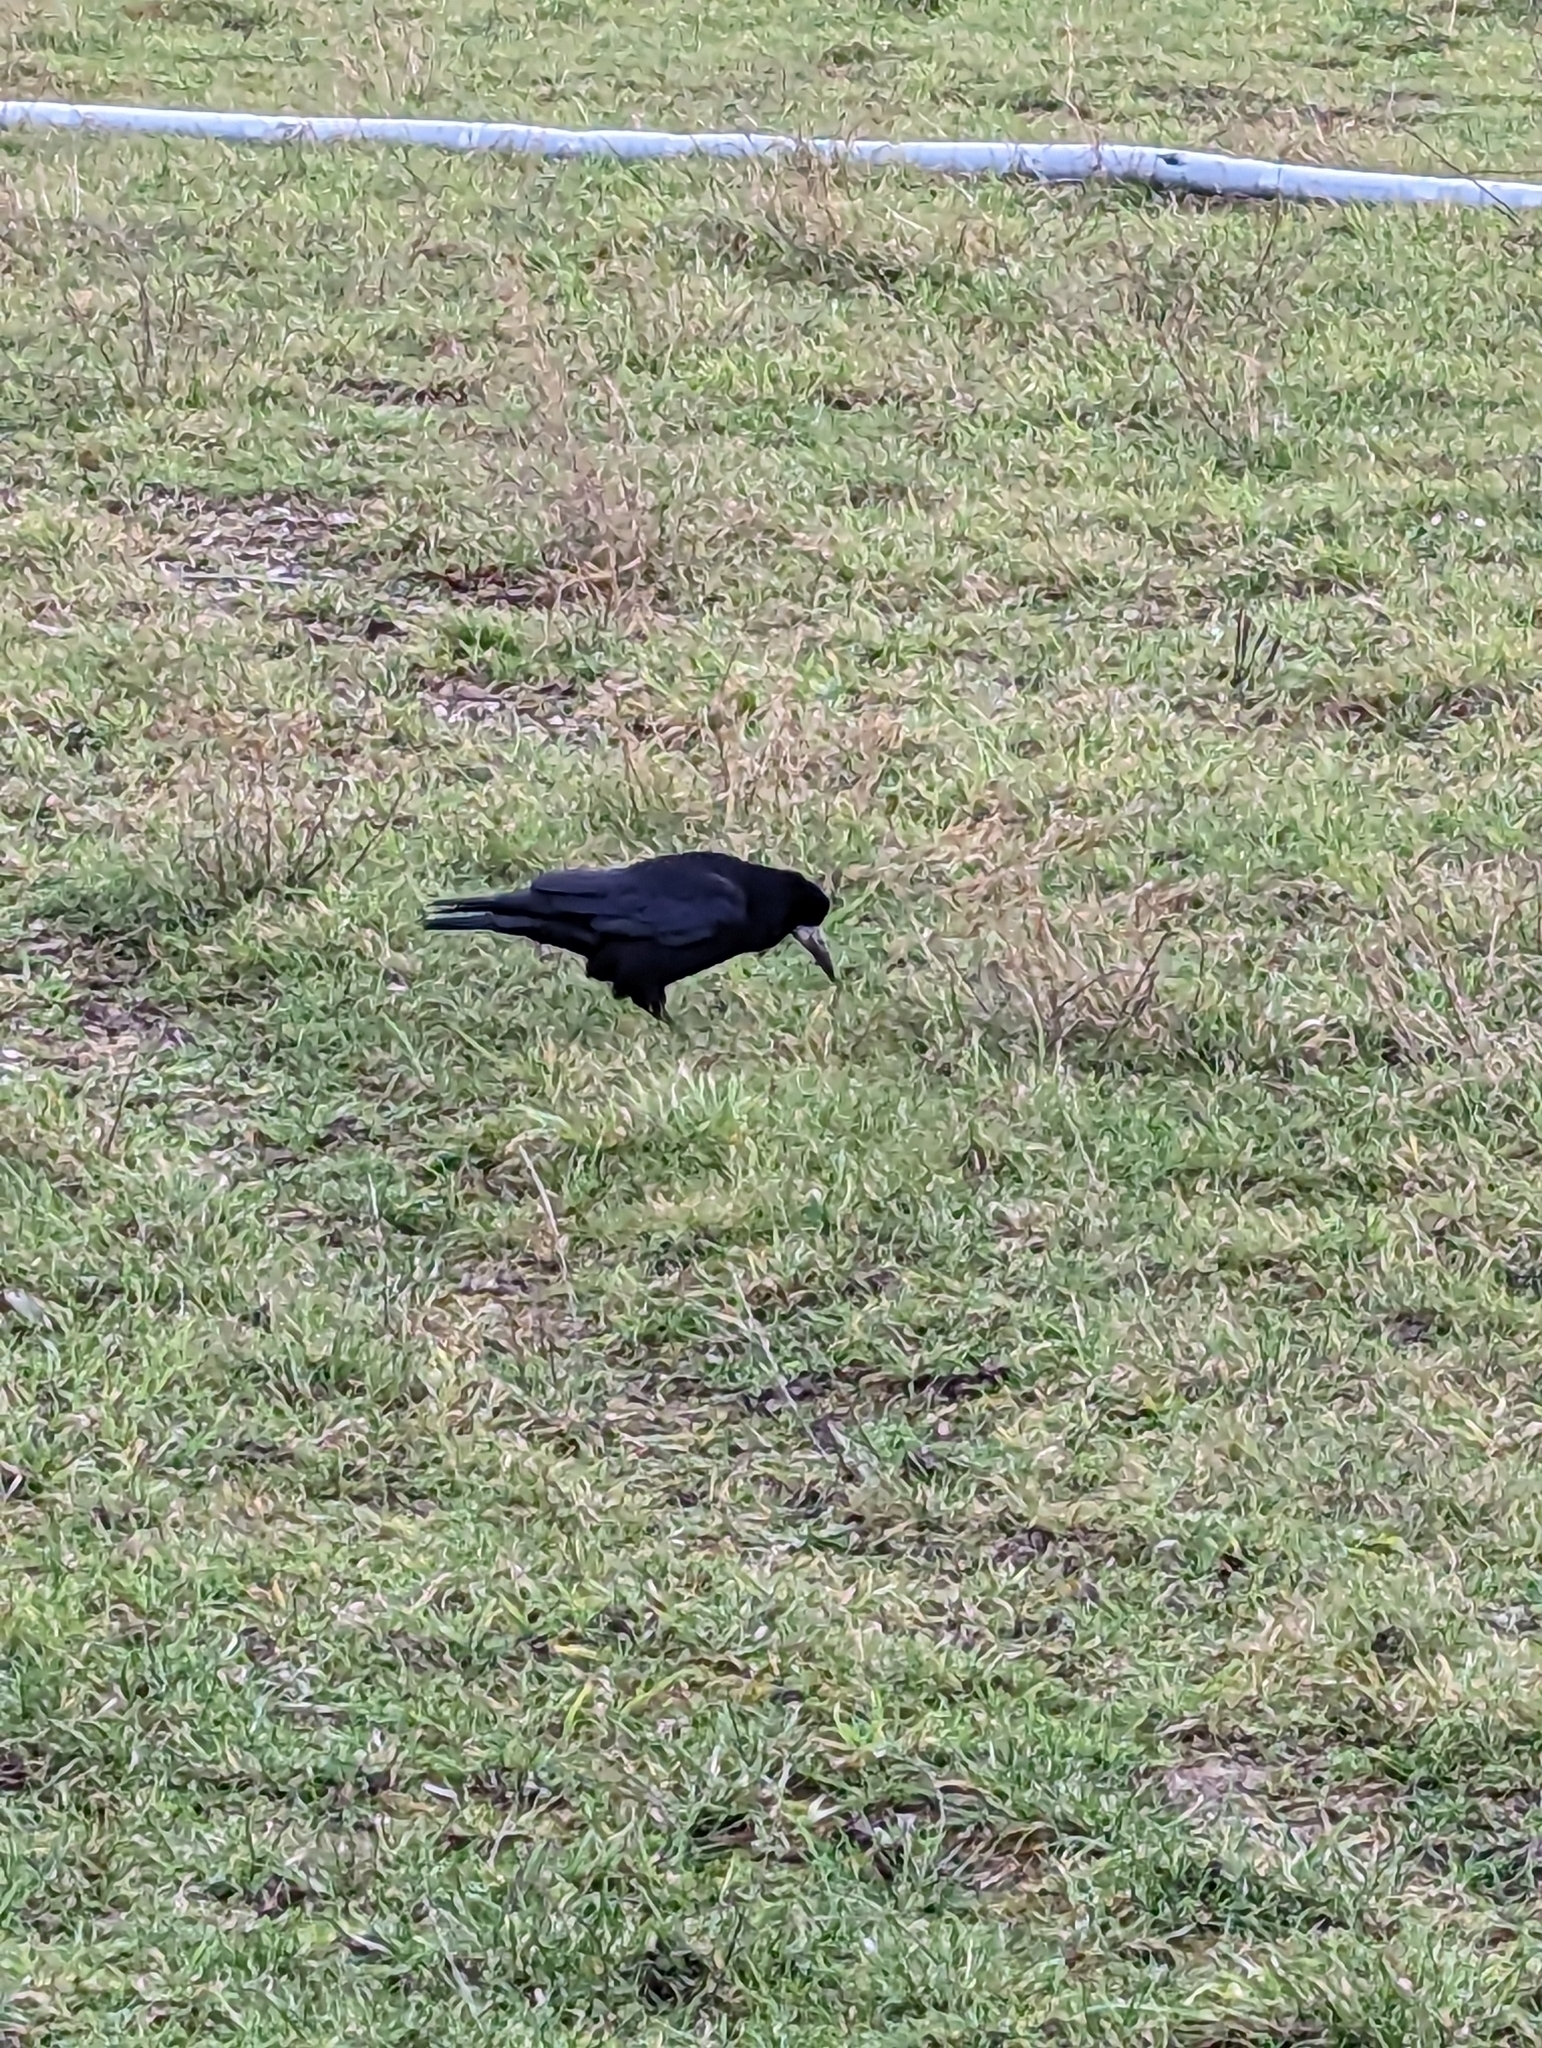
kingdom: Animalia
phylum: Chordata
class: Aves
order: Passeriformes
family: Corvidae
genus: Corvus
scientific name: Corvus frugilegus
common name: Rook
